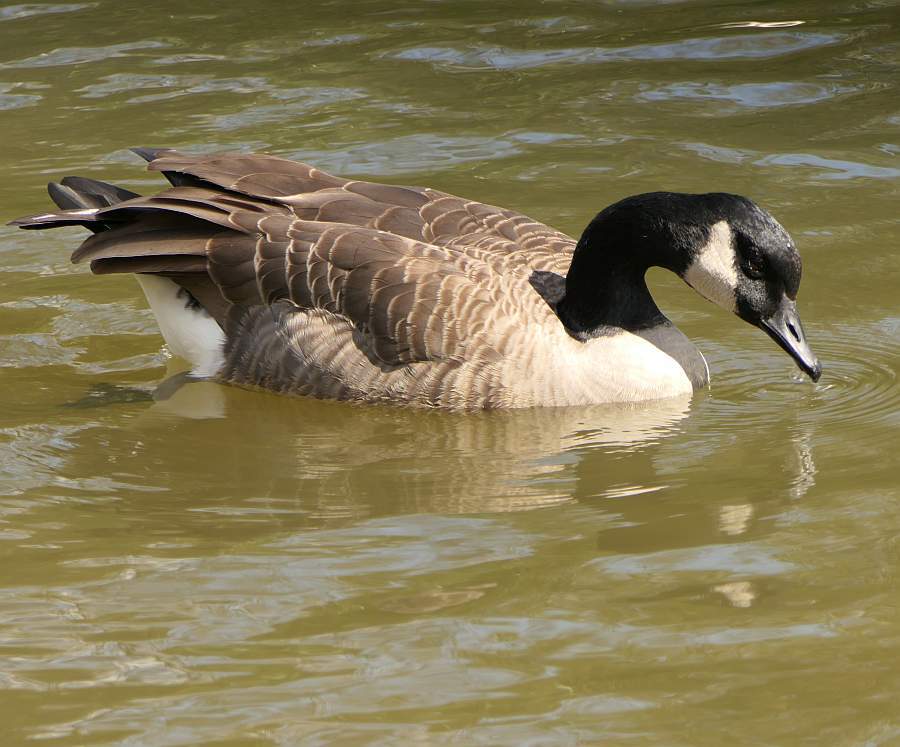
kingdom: Animalia
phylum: Chordata
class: Aves
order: Anseriformes
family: Anatidae
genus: Branta
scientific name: Branta canadensis
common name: Canada goose
